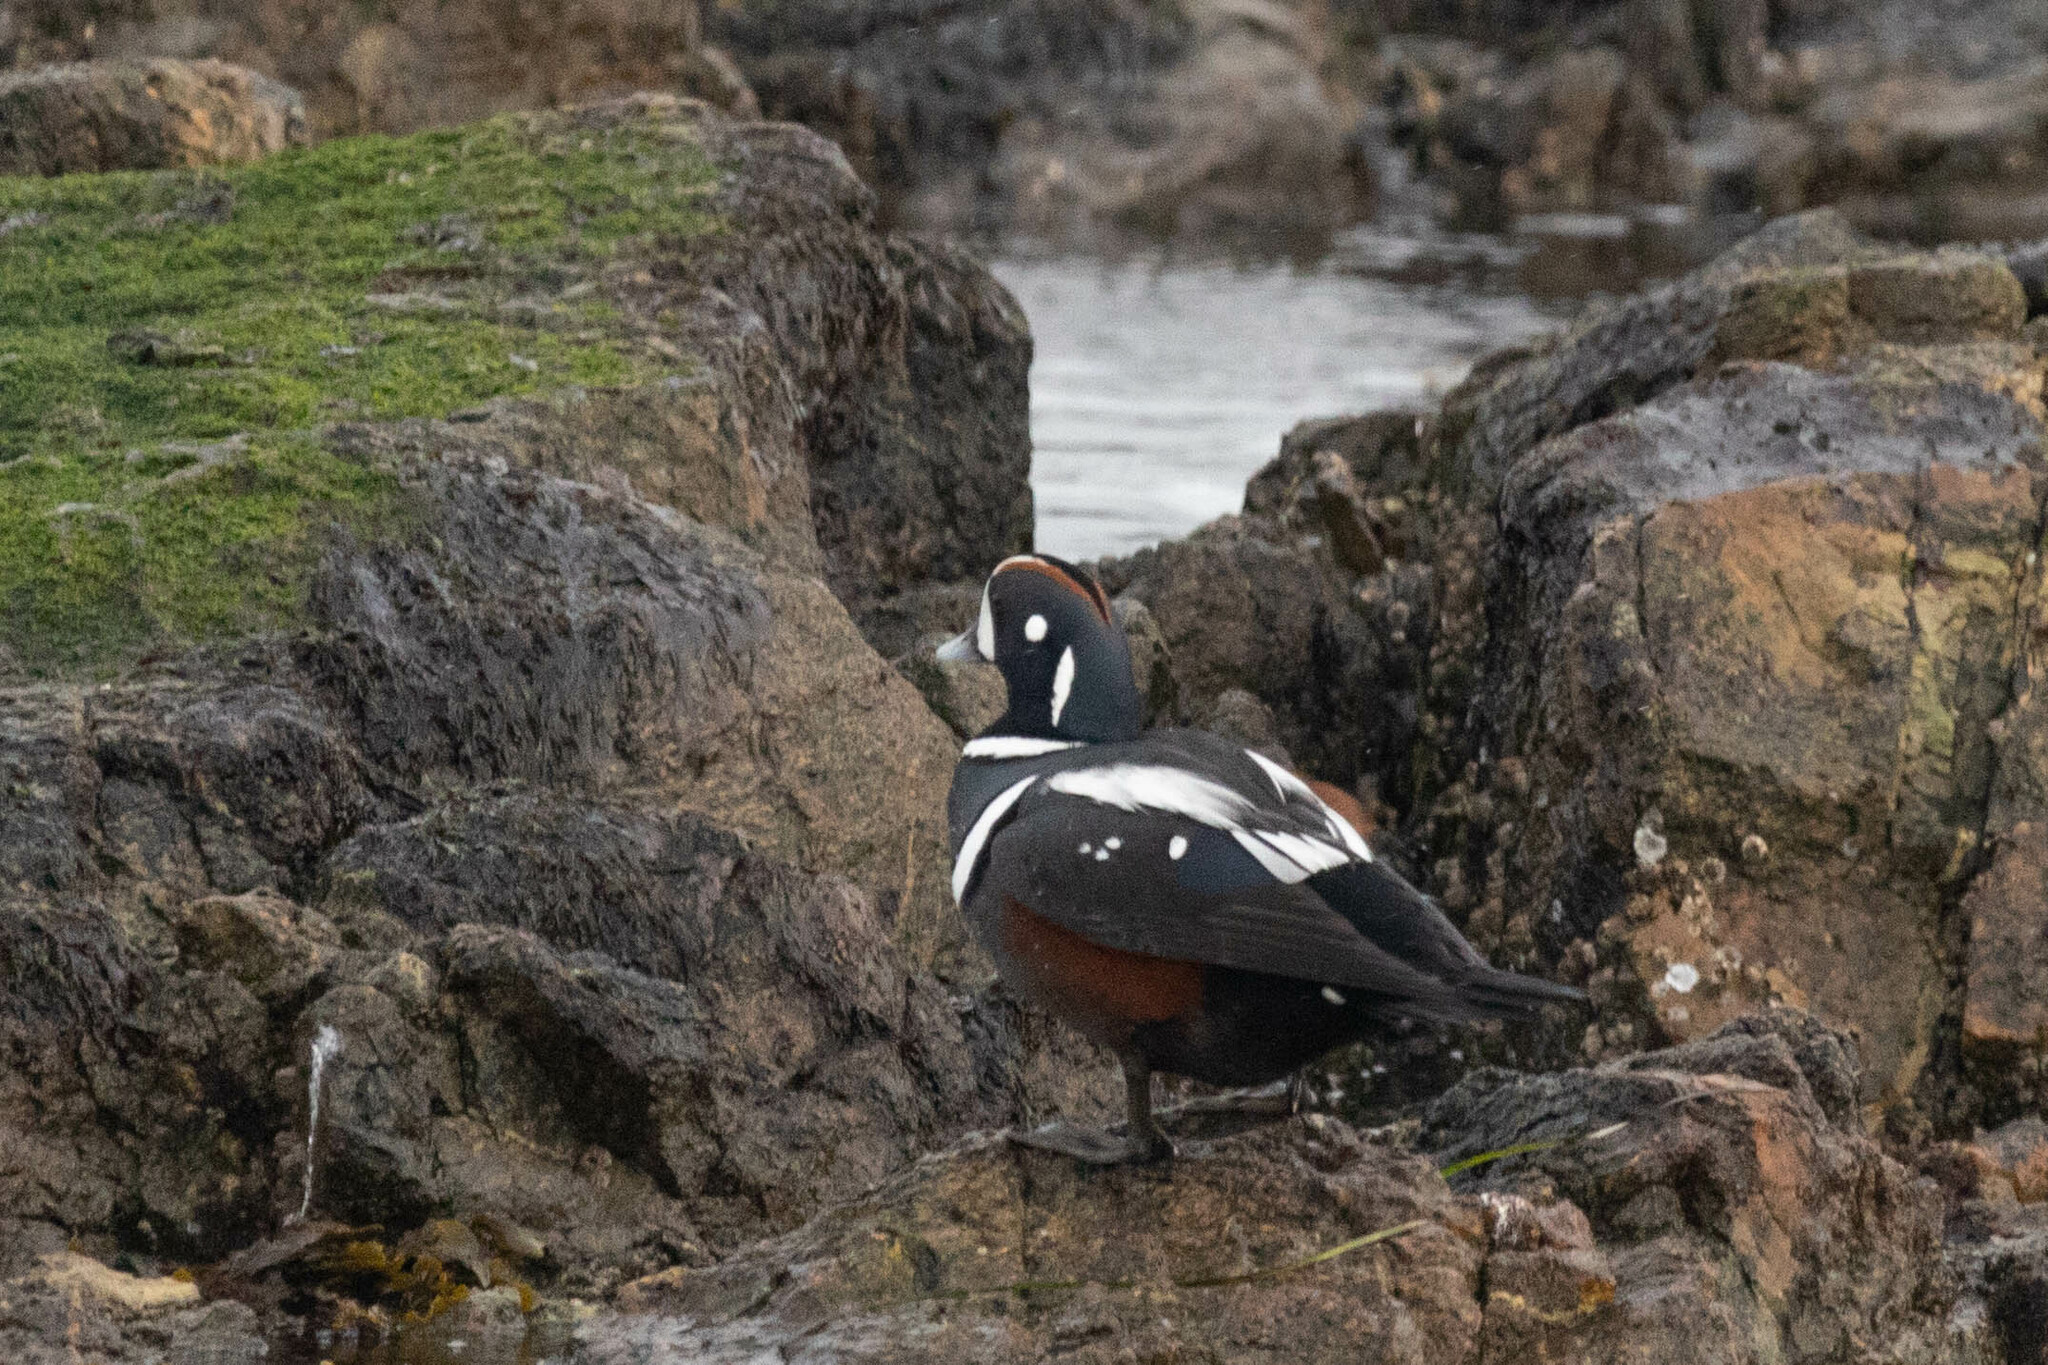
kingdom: Animalia
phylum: Chordata
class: Aves
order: Anseriformes
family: Anatidae
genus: Histrionicus
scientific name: Histrionicus histrionicus
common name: Harlequin duck
